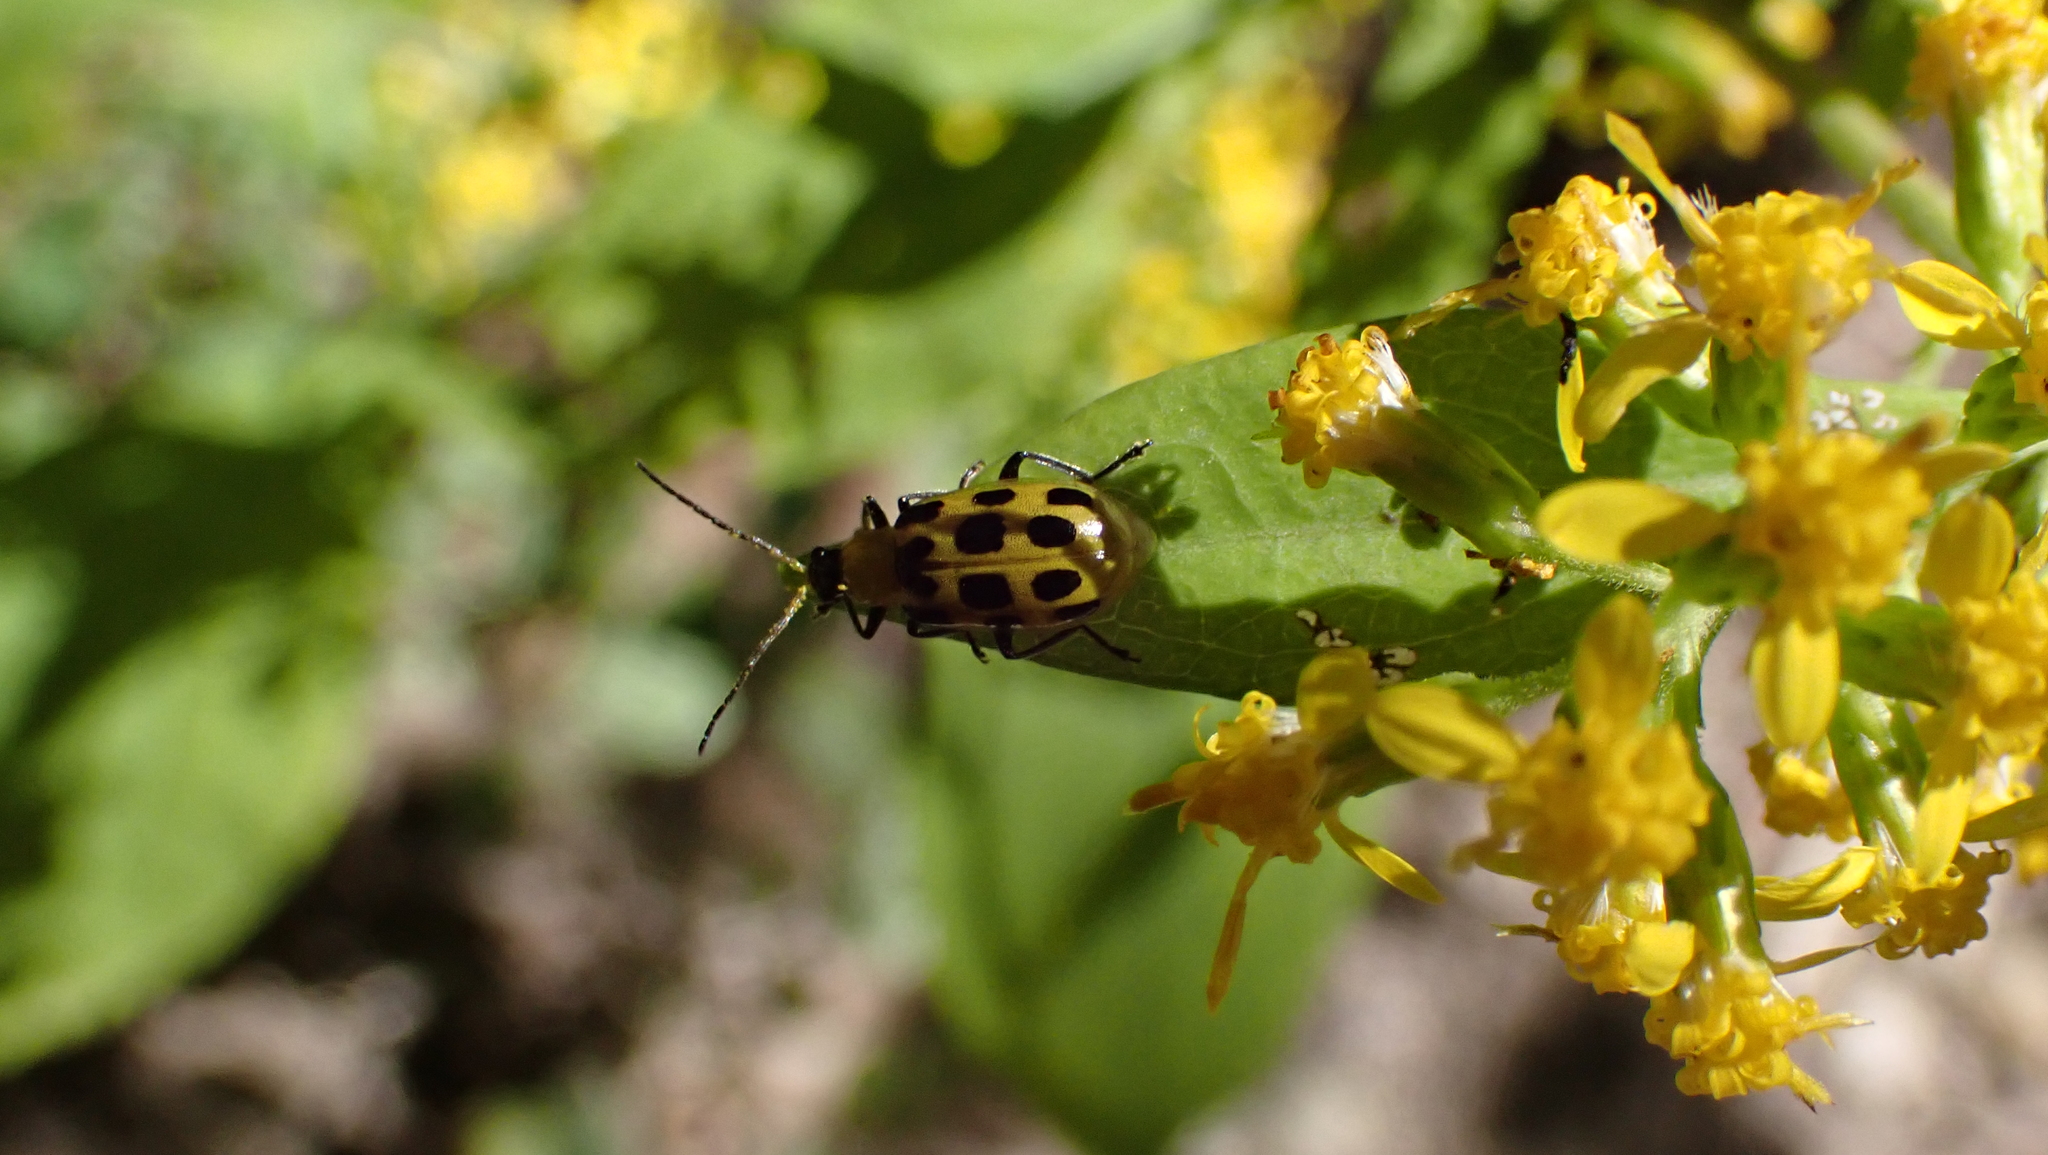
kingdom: Animalia
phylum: Arthropoda
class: Insecta
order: Coleoptera
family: Chrysomelidae
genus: Diabrotica
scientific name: Diabrotica undecimpunctata
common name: Spotted cucumber beetle
